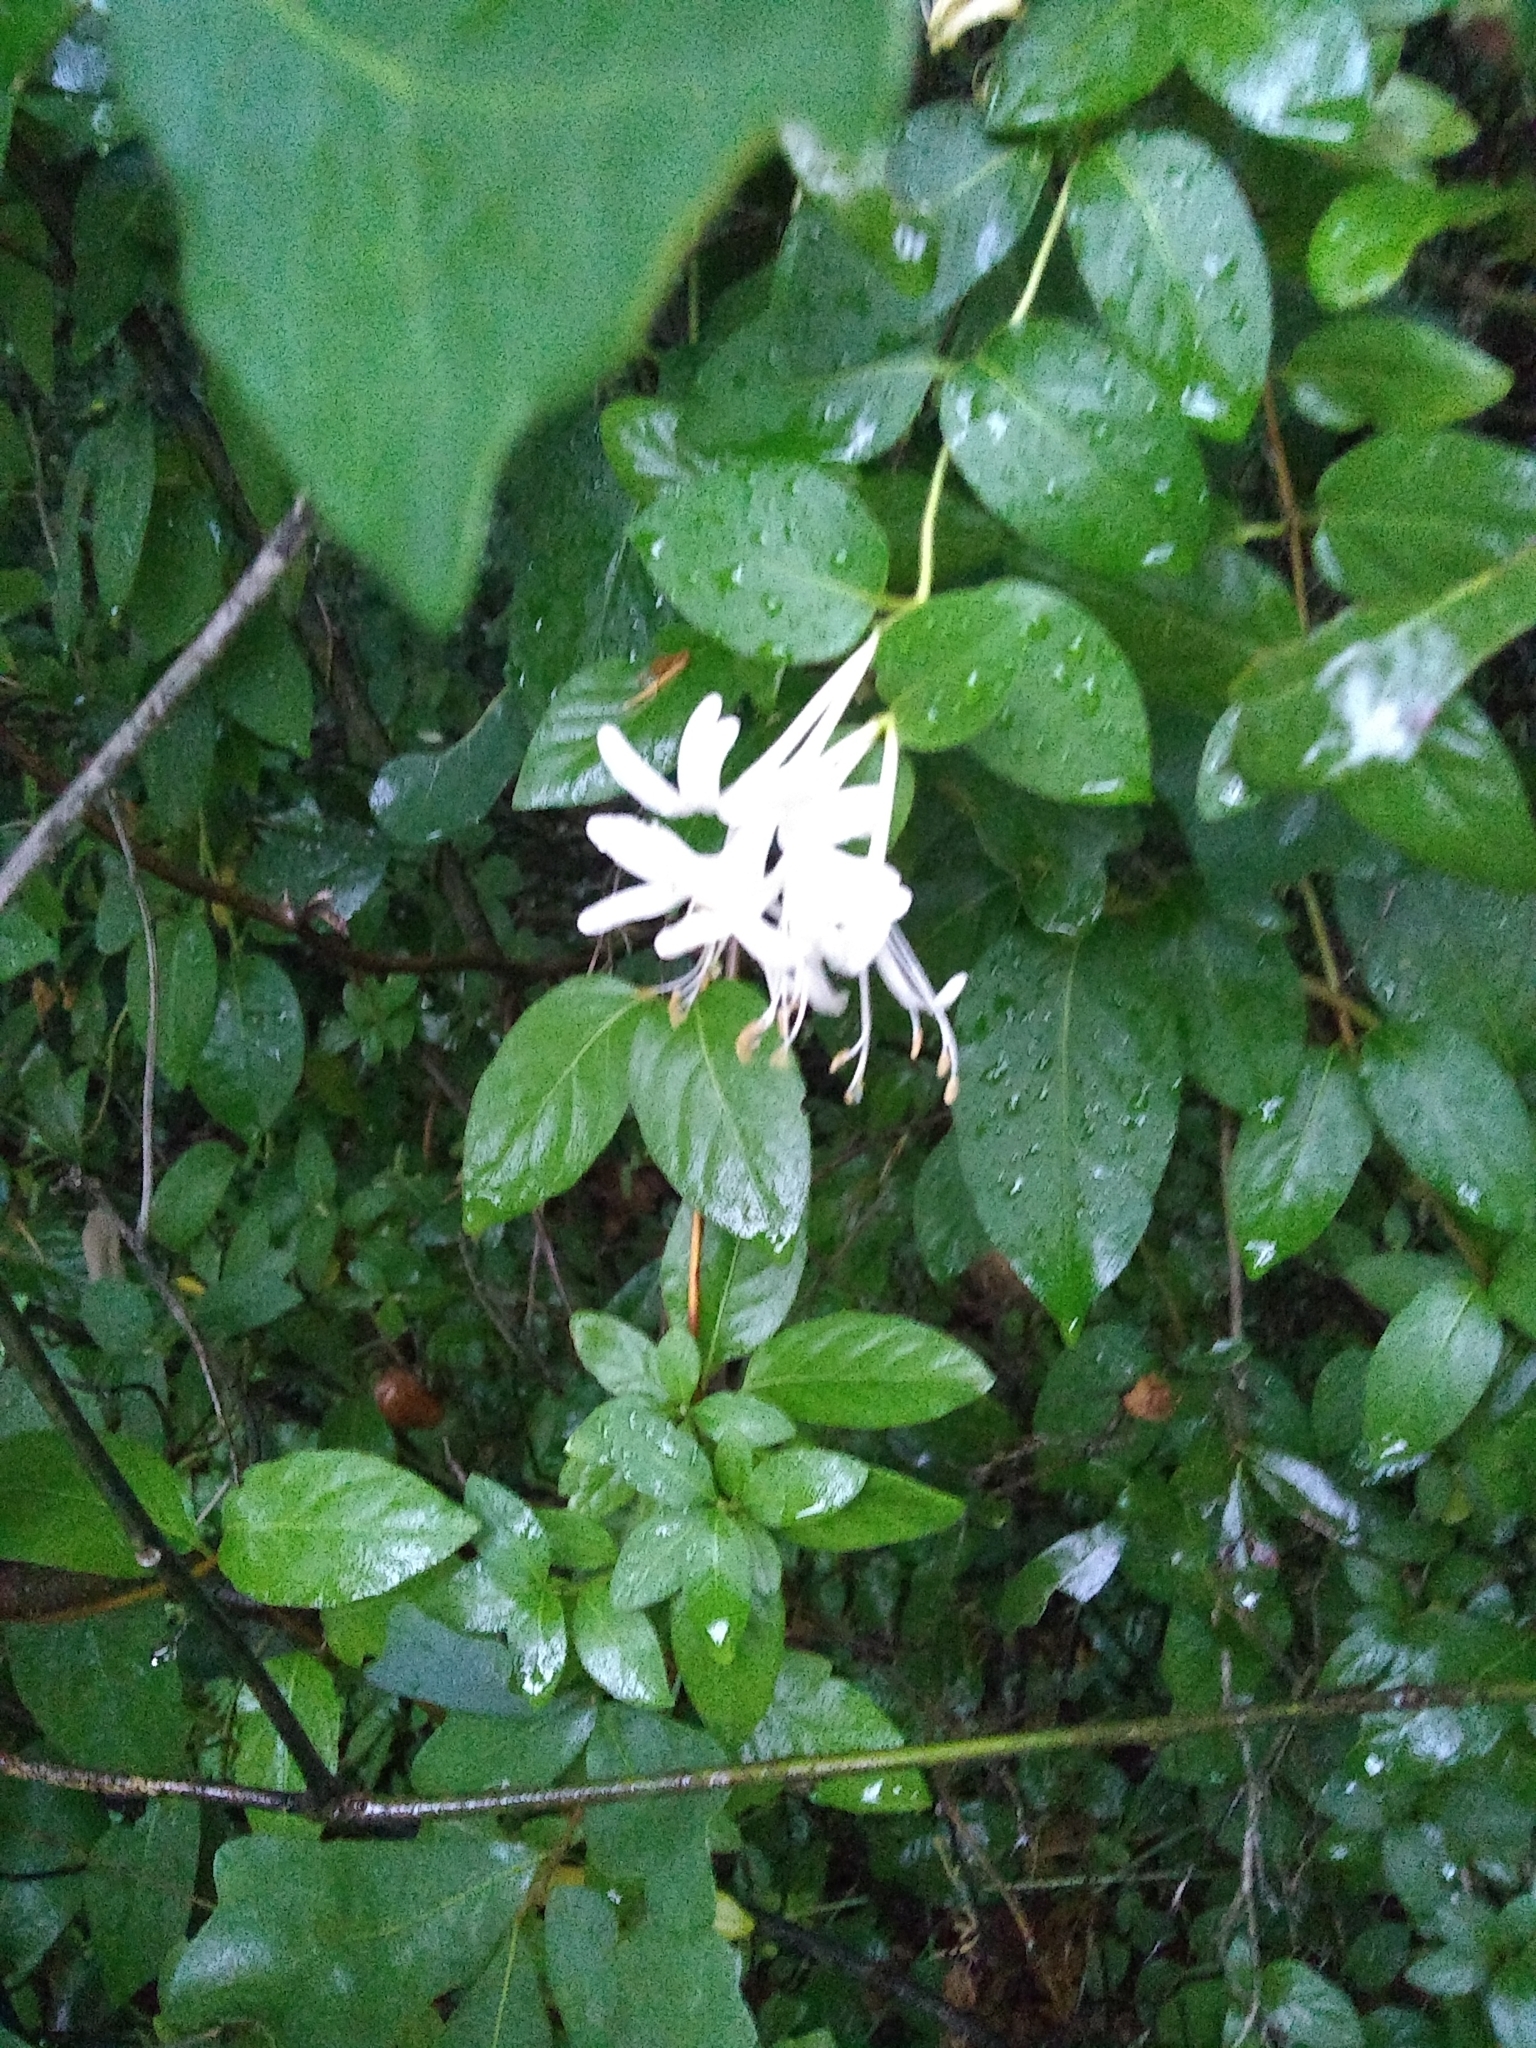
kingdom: Plantae
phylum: Tracheophyta
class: Magnoliopsida
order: Dipsacales
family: Caprifoliaceae
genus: Lonicera
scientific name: Lonicera japonica
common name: Japanese honeysuckle
